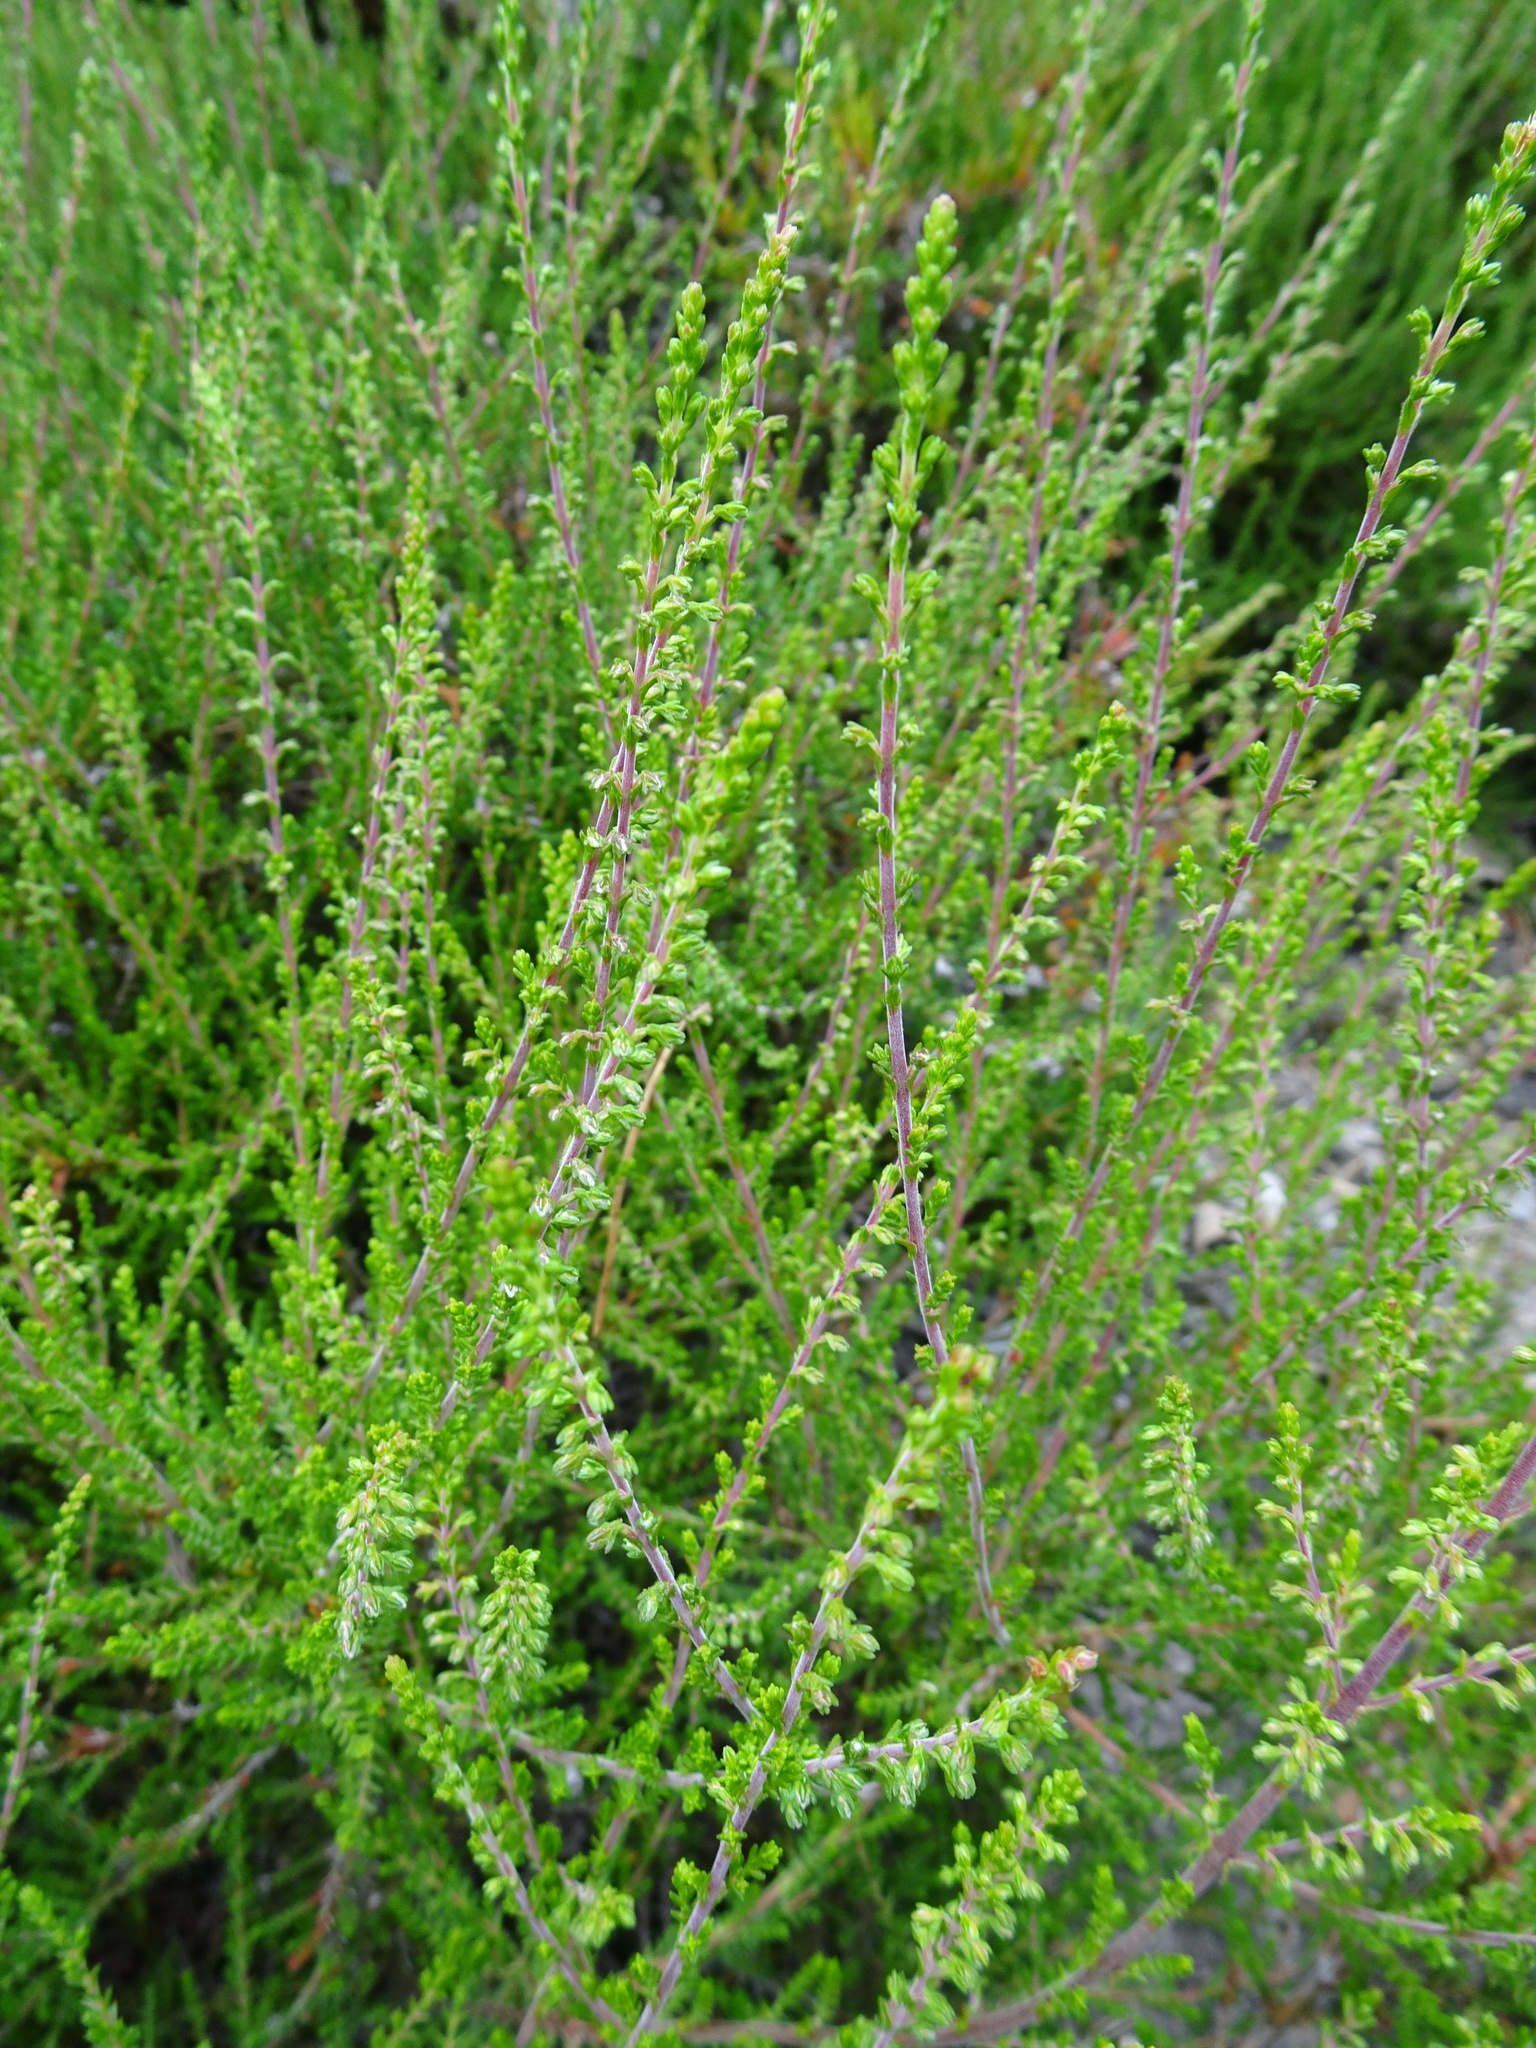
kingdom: Plantae
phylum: Tracheophyta
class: Magnoliopsida
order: Ericales
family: Ericaceae
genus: Calluna
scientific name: Calluna vulgaris
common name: Heather
